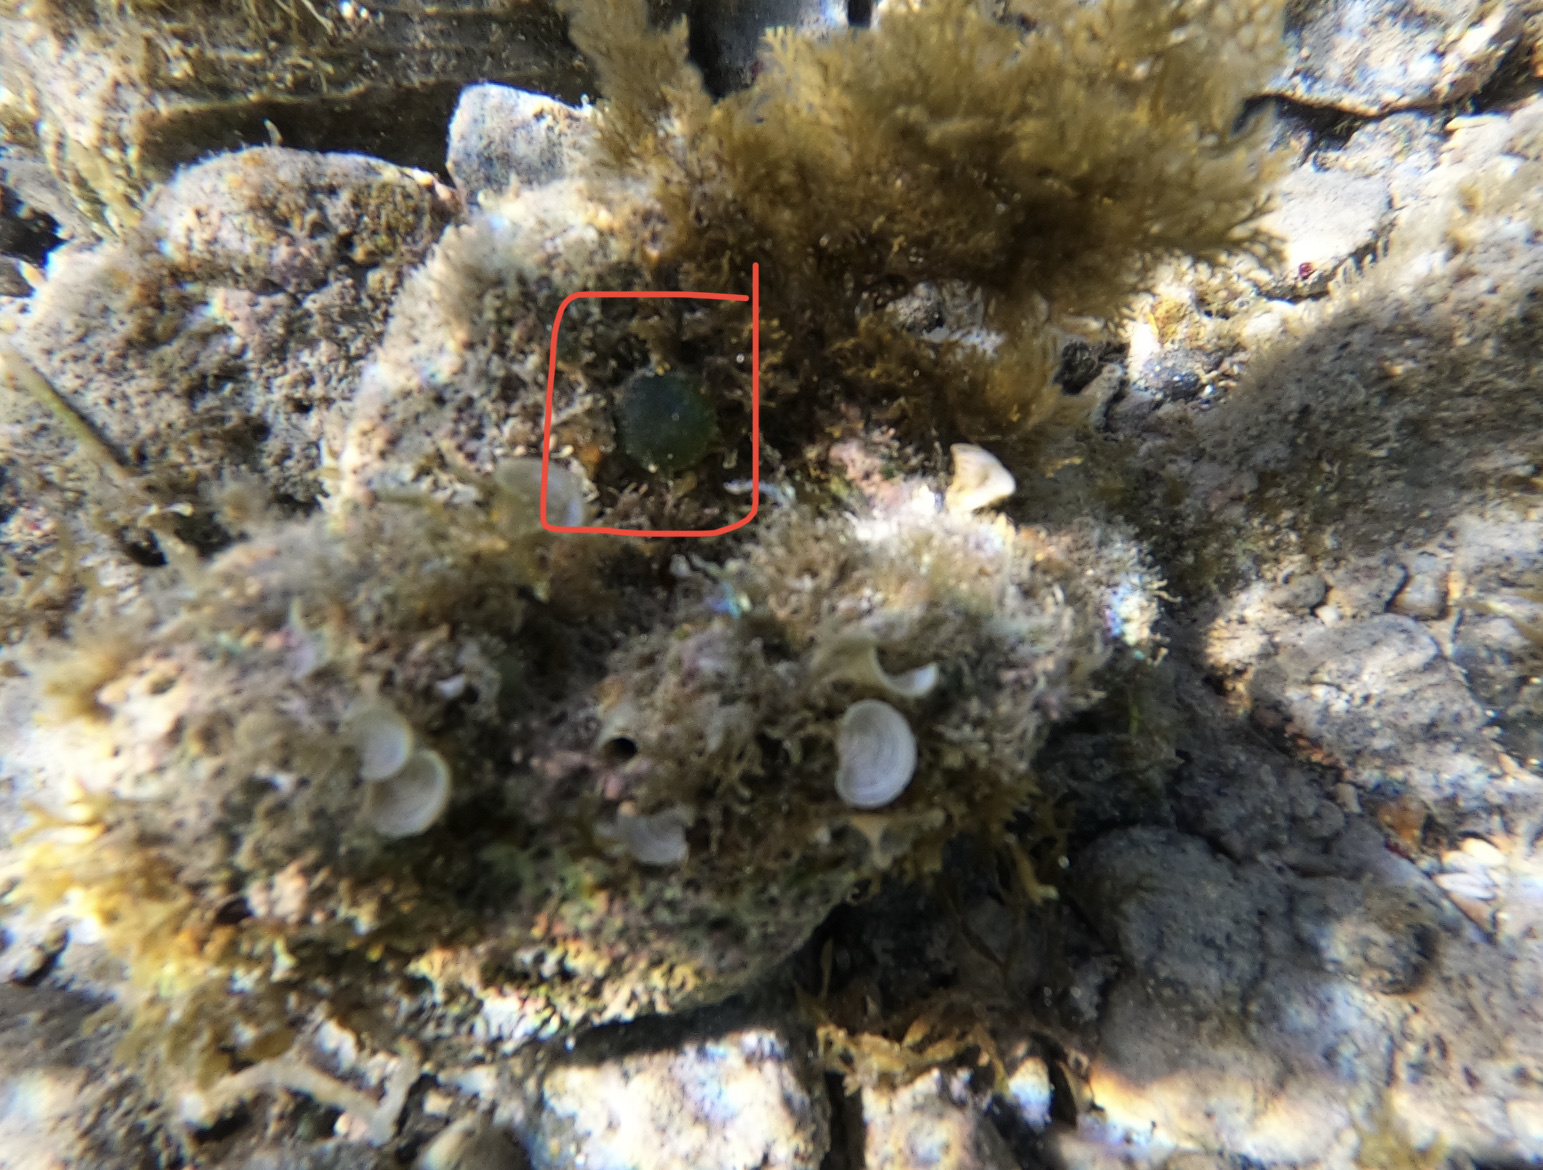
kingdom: Plantae
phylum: Chlorophyta
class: Ulvophyceae
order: Siphonocladales
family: Valoniaceae
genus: Valonia
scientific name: Valonia ventricosa
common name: Sea pearl
